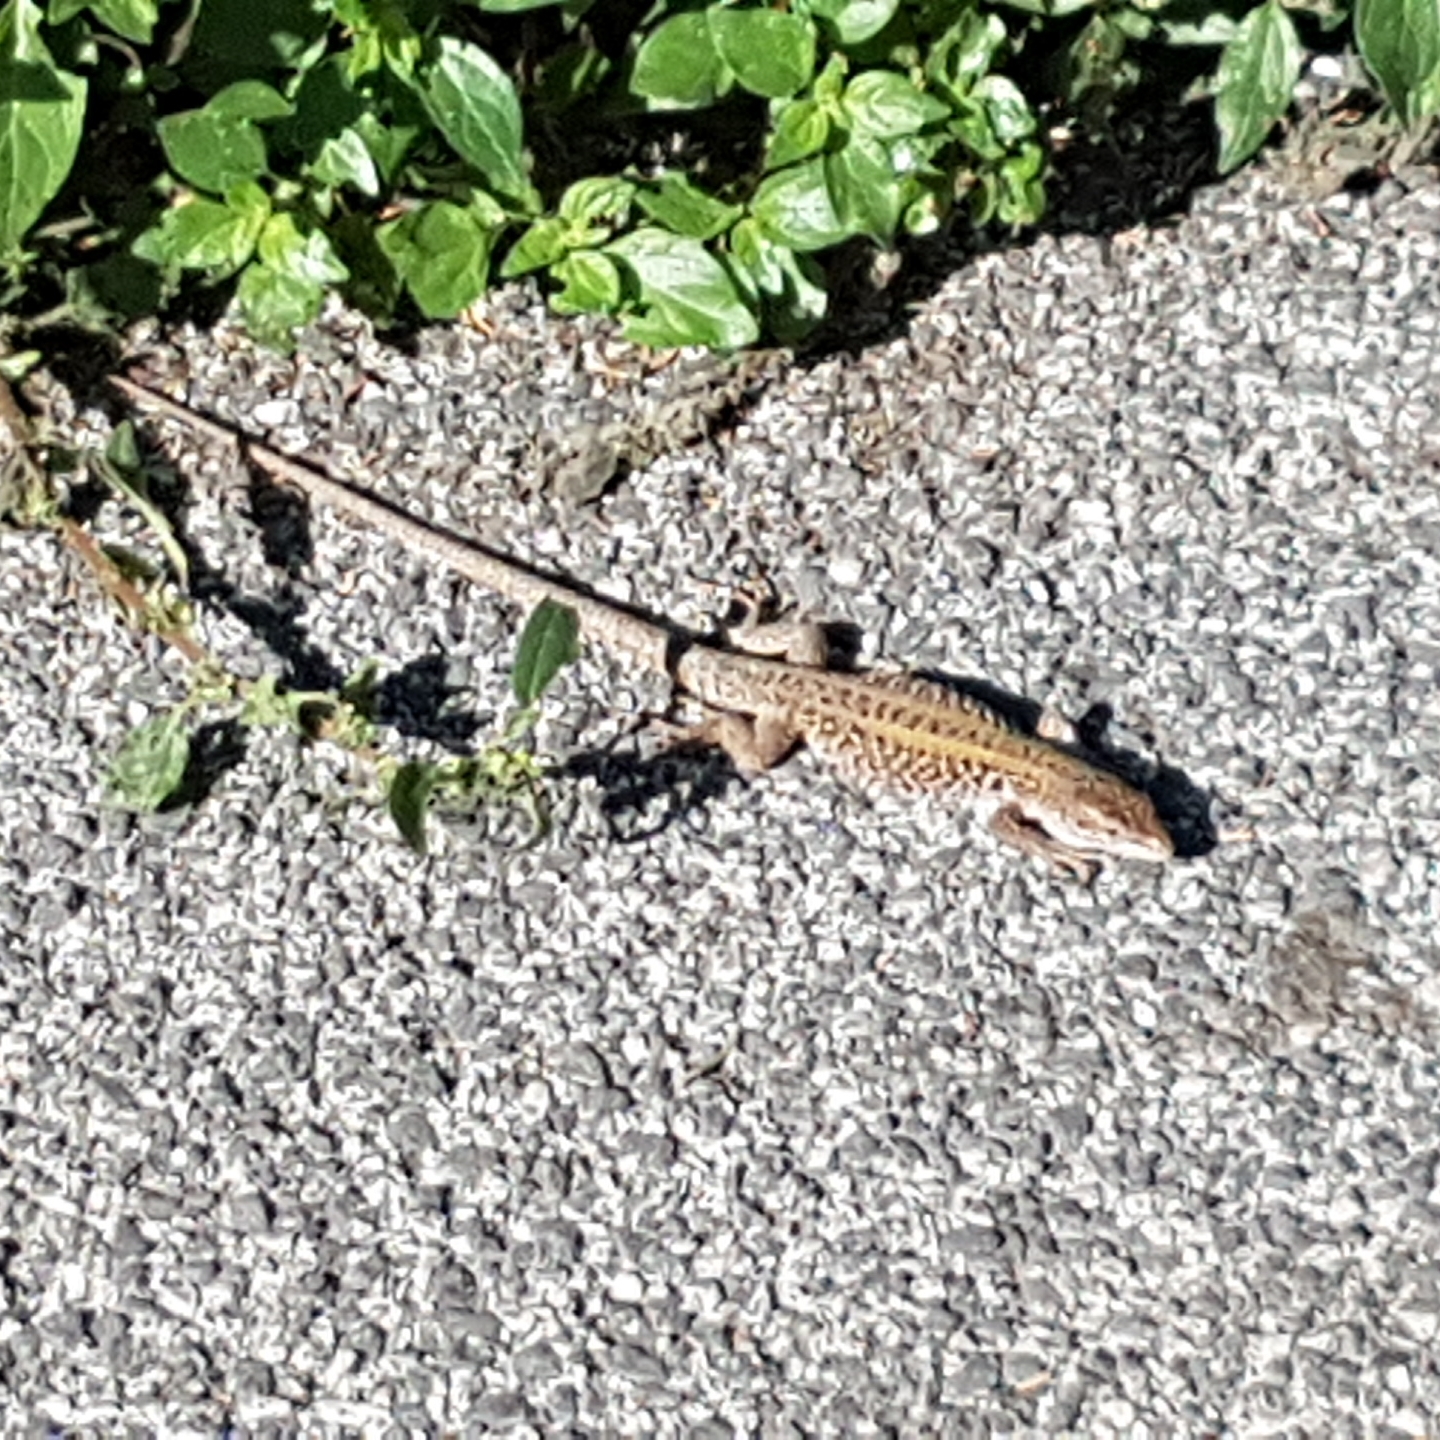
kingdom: Animalia
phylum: Chordata
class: Squamata
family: Lacertidae
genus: Podarcis
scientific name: Podarcis siculus
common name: Italian wall lizard
